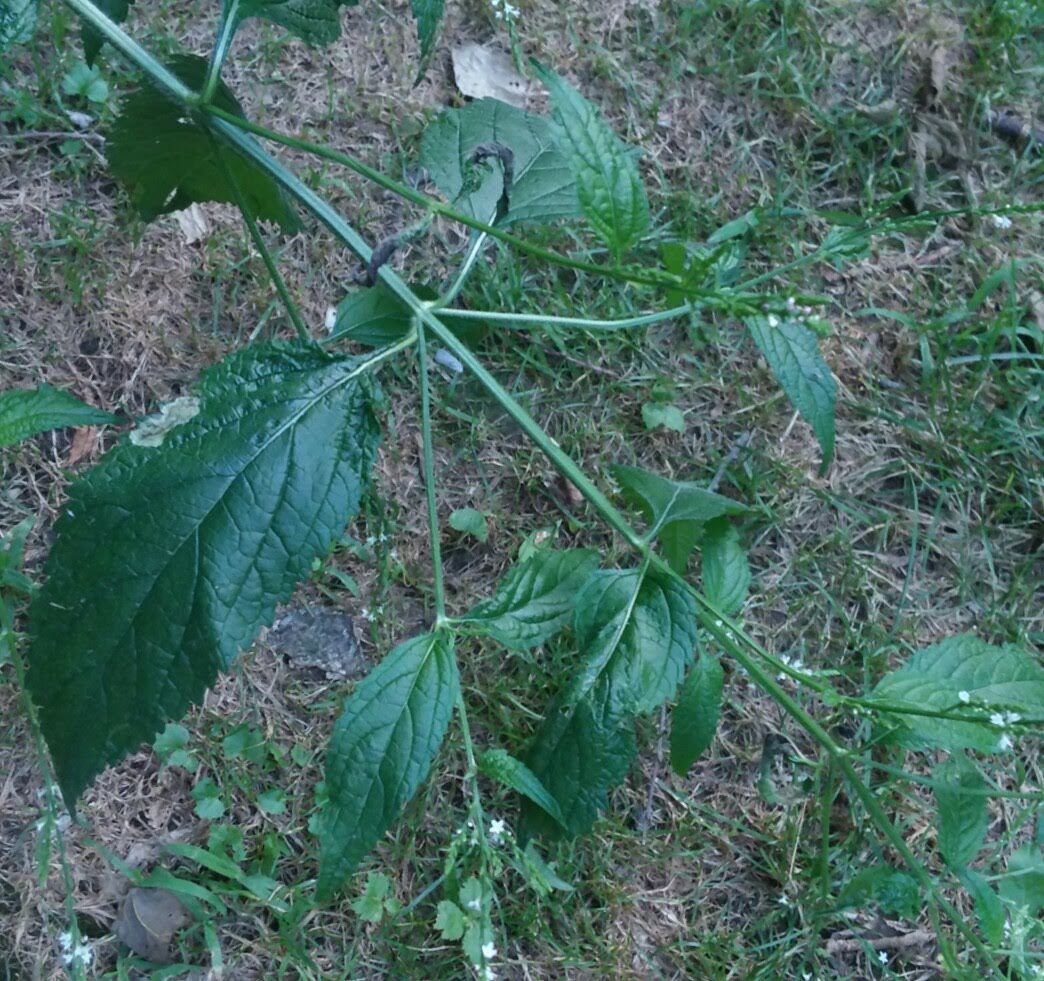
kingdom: Animalia
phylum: Arthropoda
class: Insecta
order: Diptera
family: Agromyzidae
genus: Calycomyza
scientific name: Calycomyza verbenae
